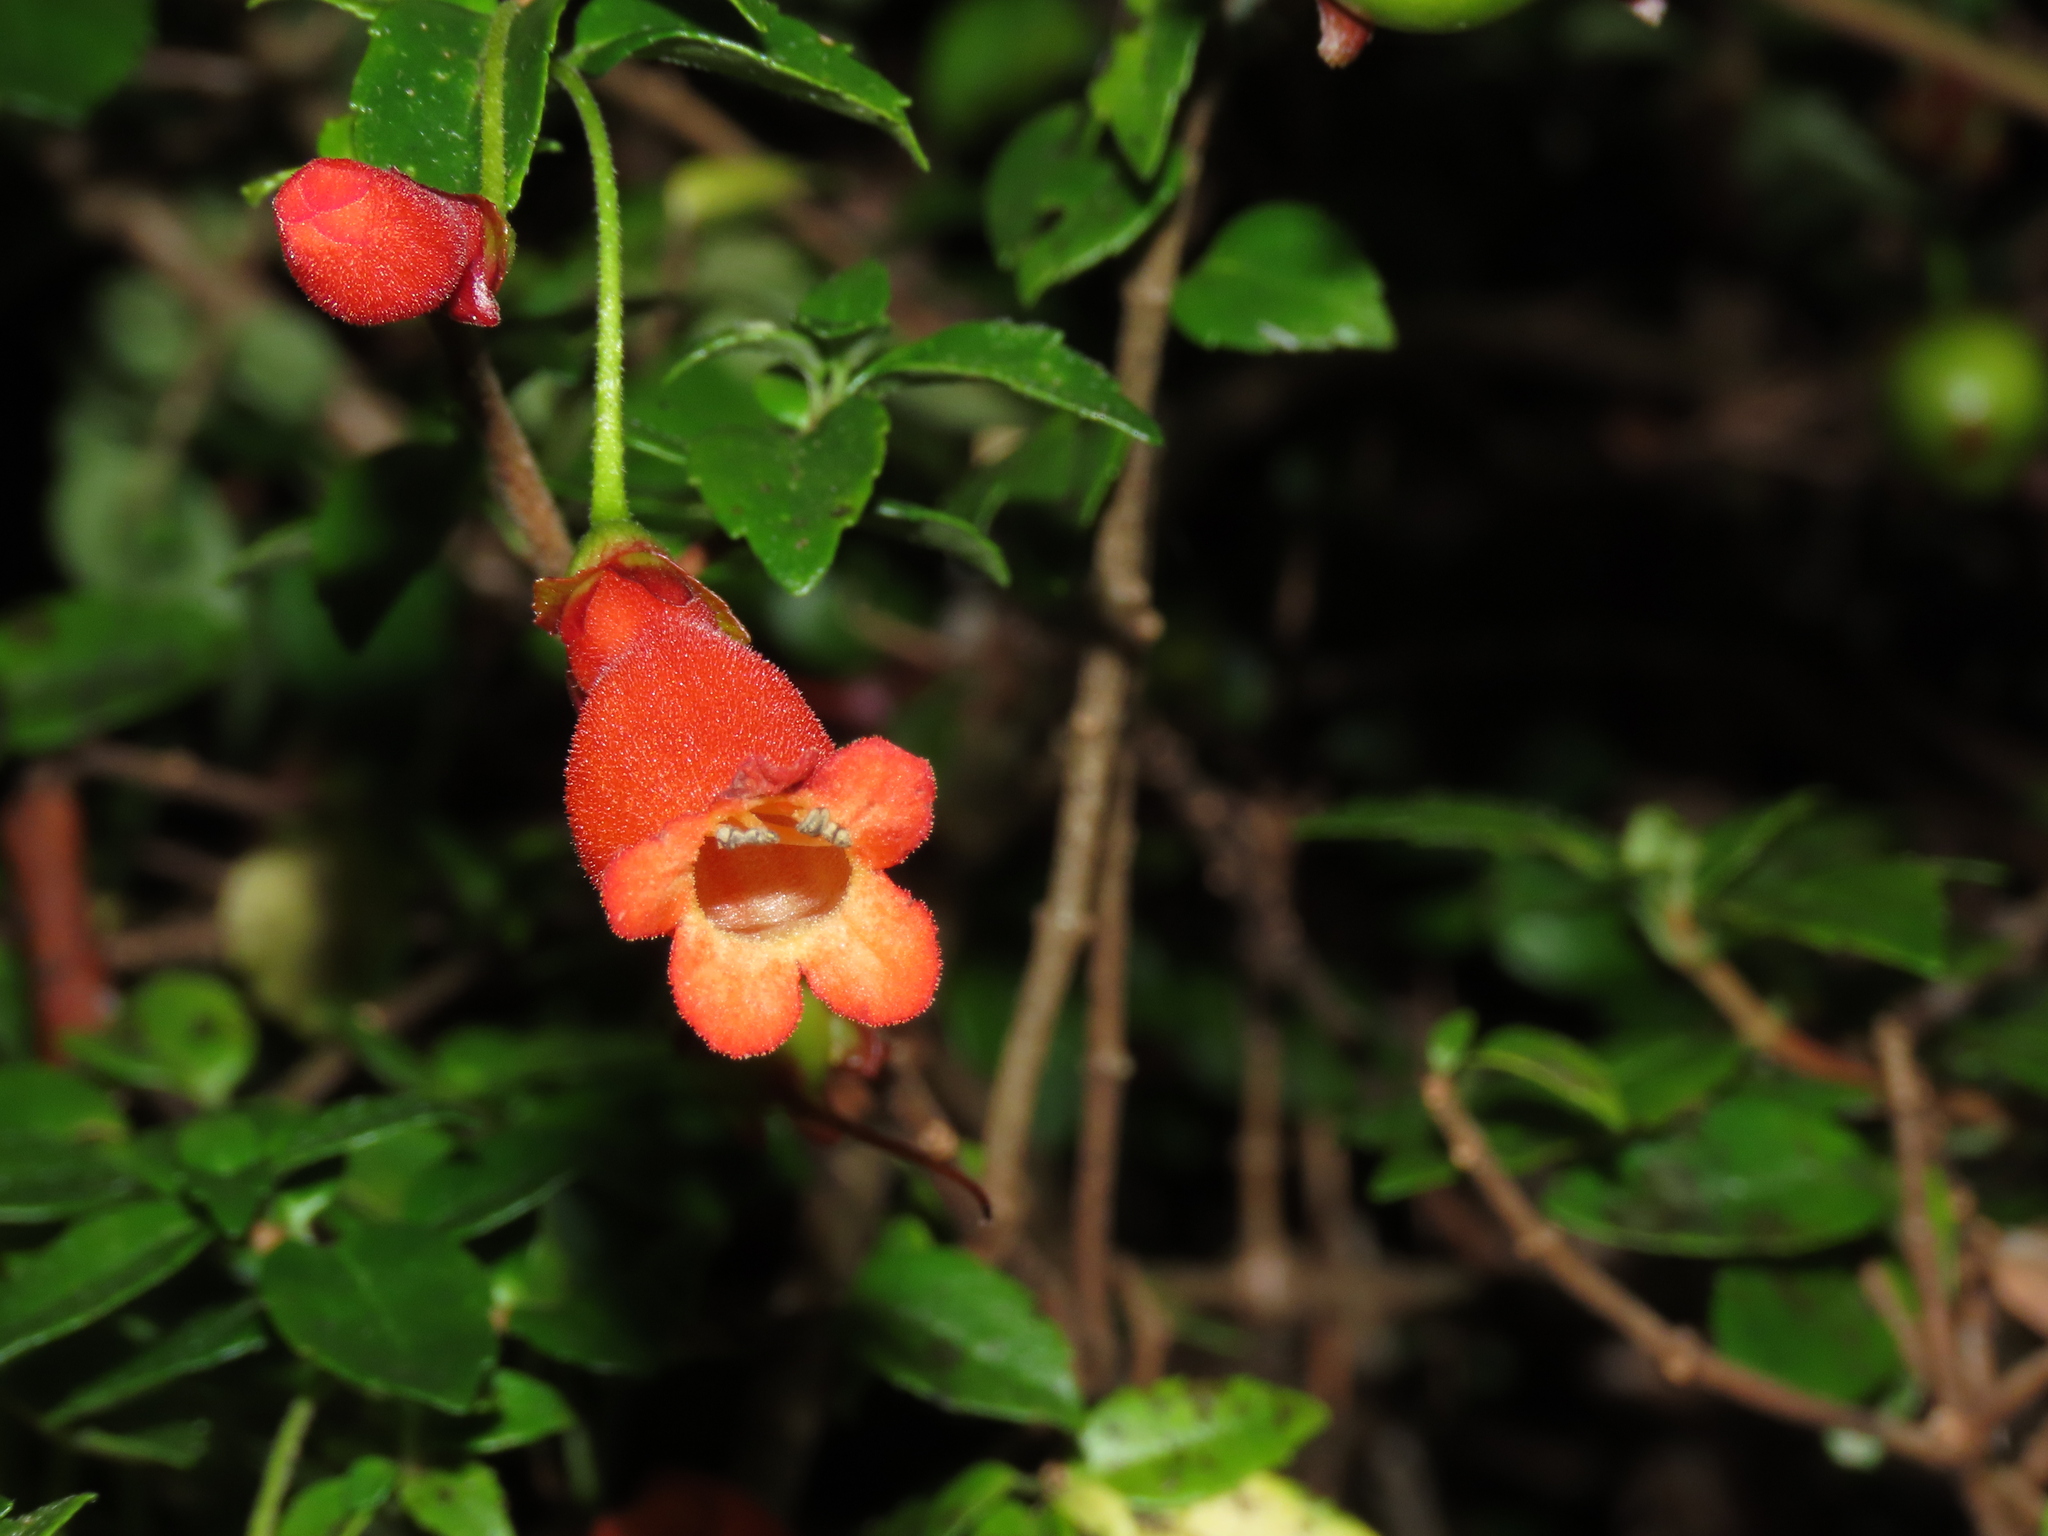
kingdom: Plantae
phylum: Tracheophyta
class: Magnoliopsida
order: Lamiales
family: Gesneriaceae
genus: Mitraria
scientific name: Mitraria coccinea
